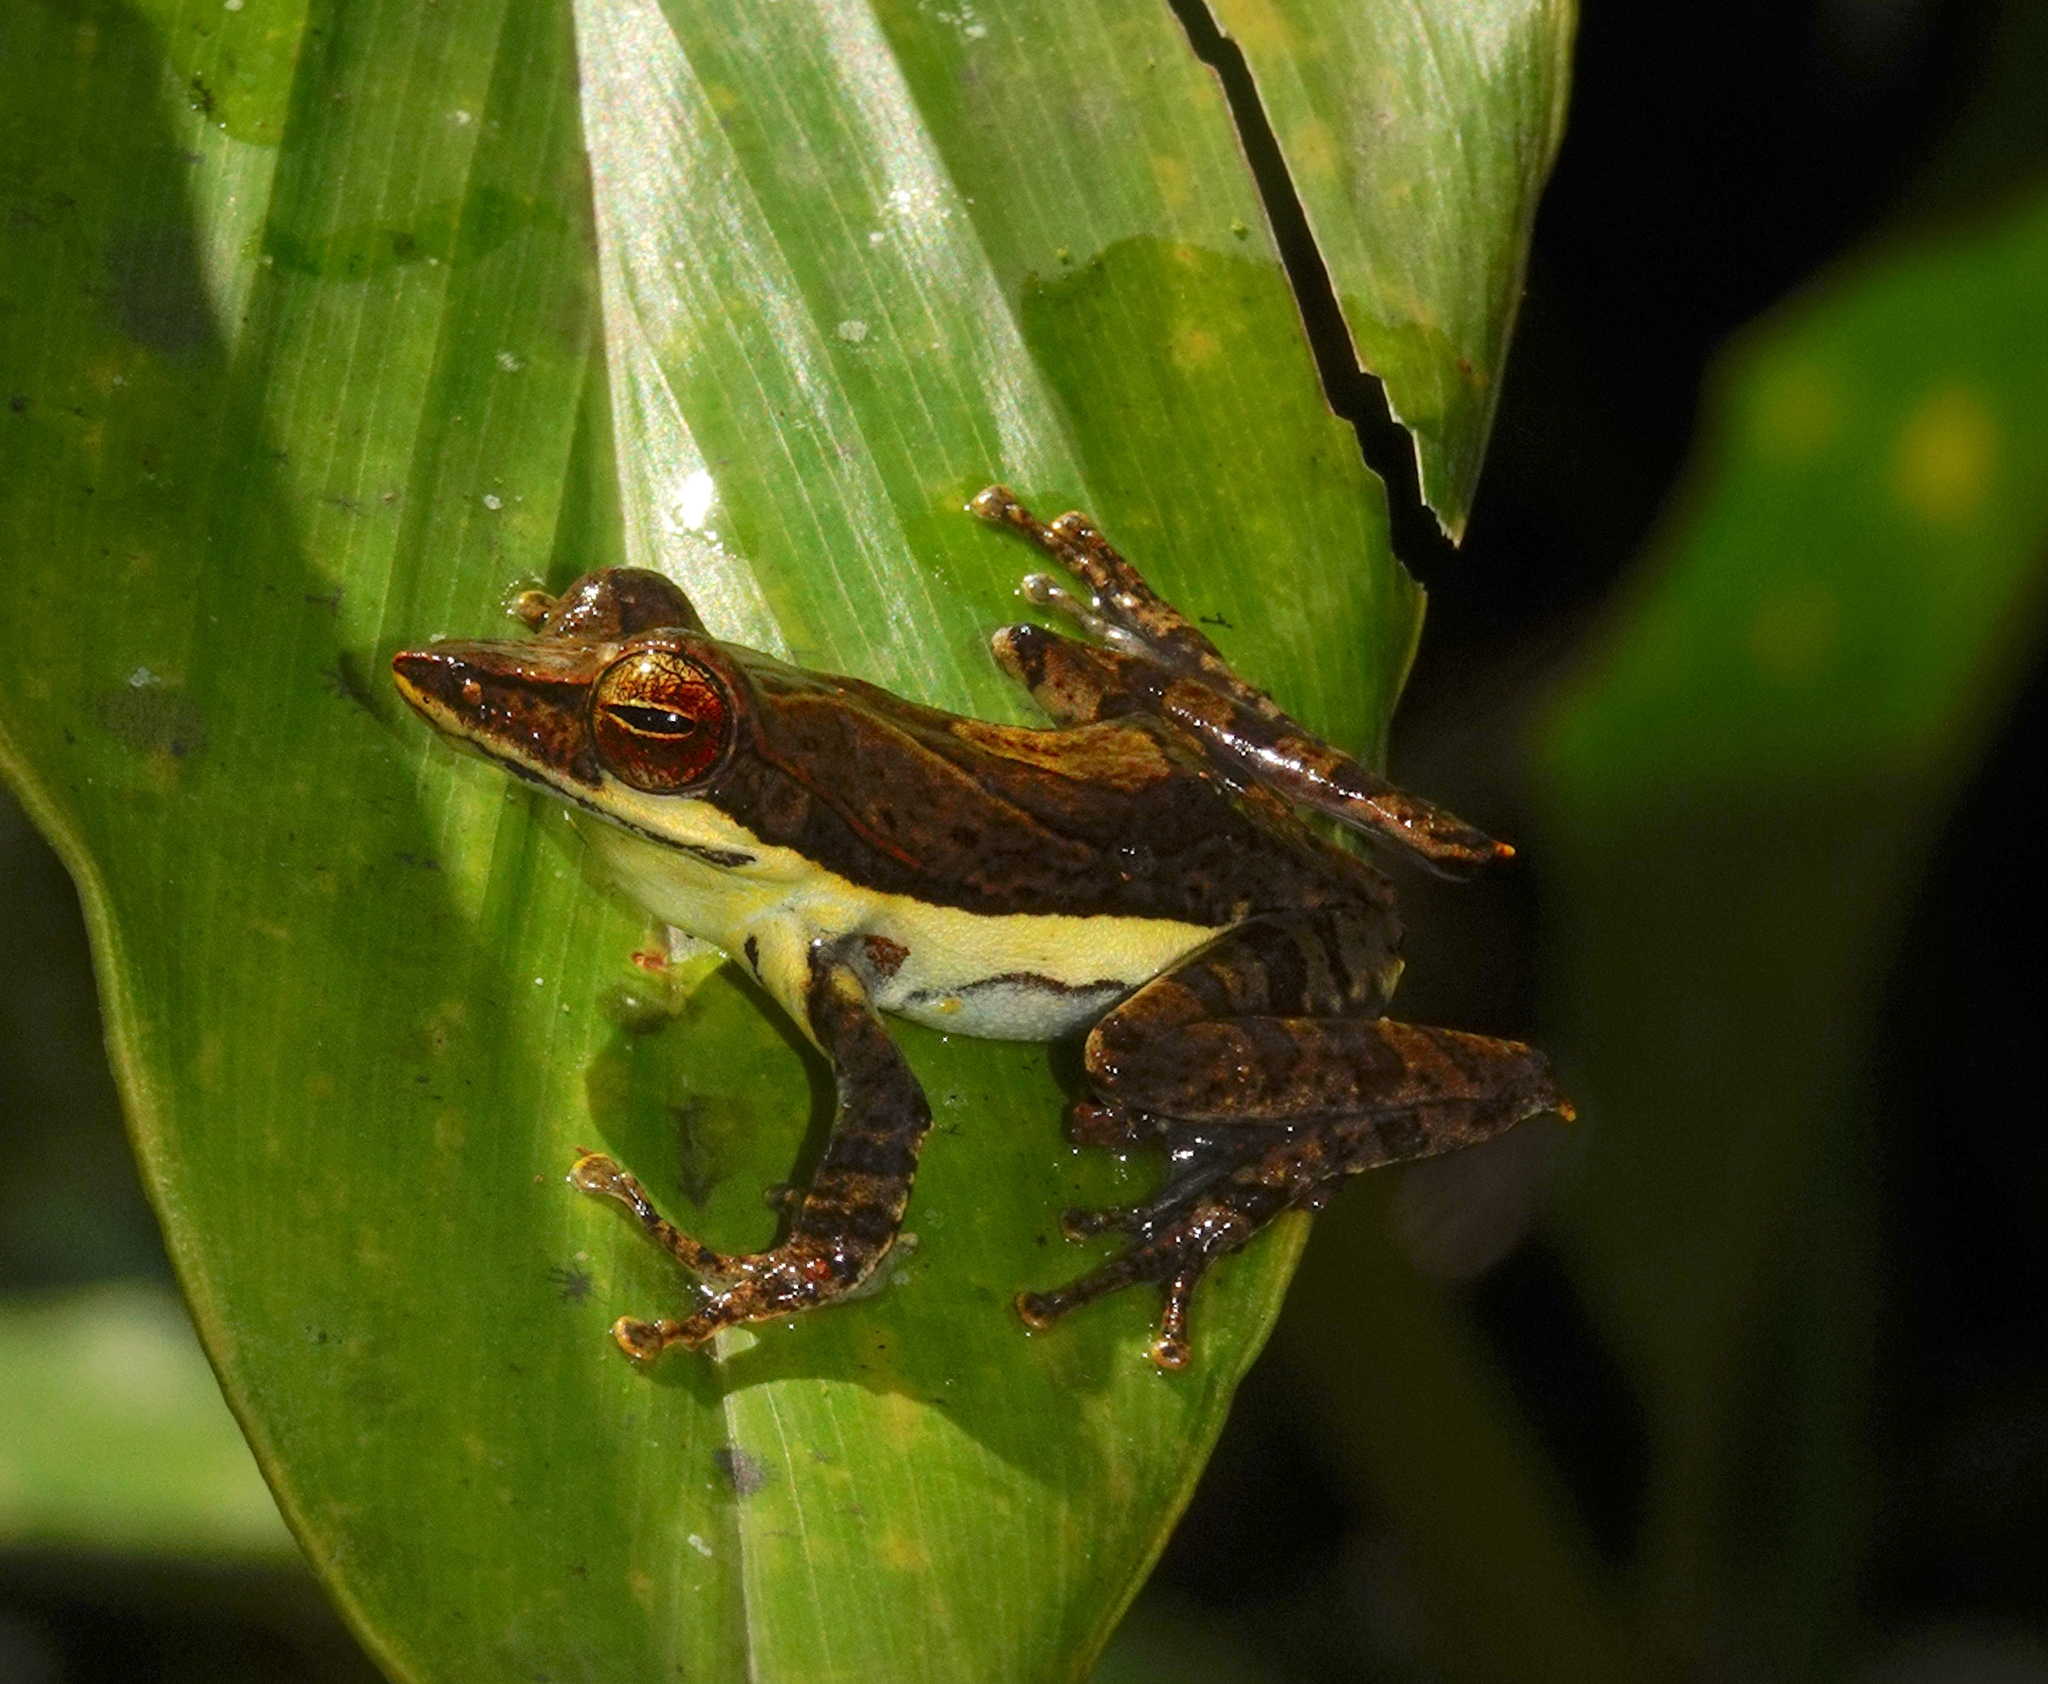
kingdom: Animalia
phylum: Chordata
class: Amphibia
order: Anura
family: Rhacophoridae
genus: Taruga
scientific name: Taruga fastigo
